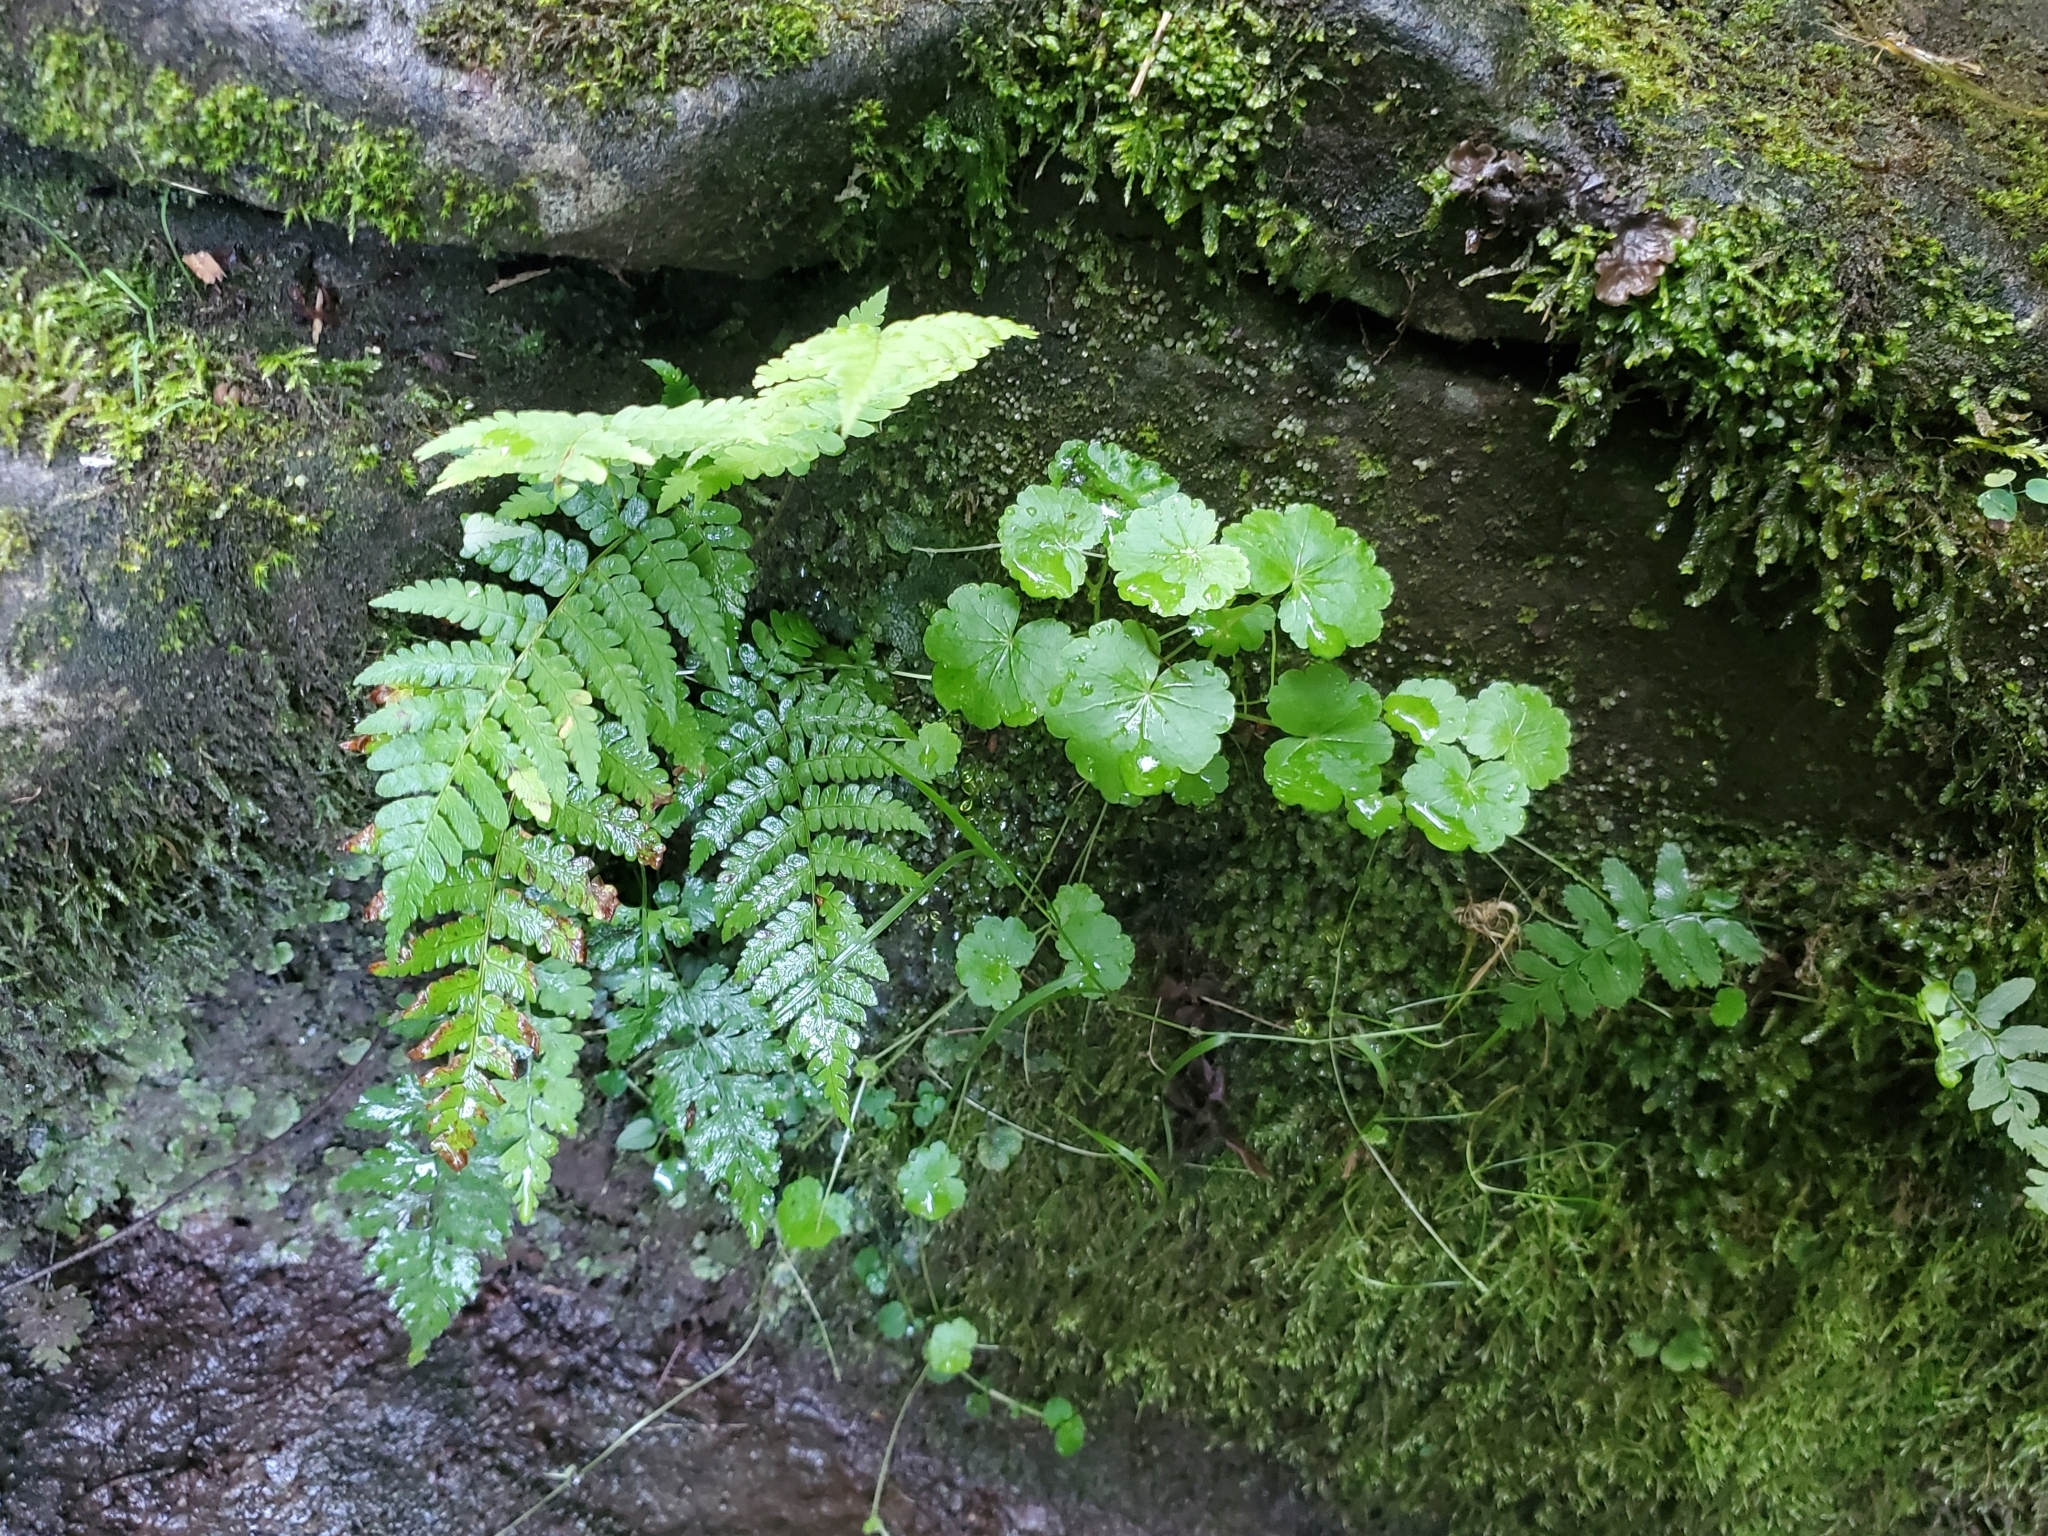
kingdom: Plantae
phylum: Tracheophyta
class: Magnoliopsida
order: Apiales
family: Araliaceae
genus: Hydrocotyle
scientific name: Hydrocotyle americana
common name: American water-pennywort
